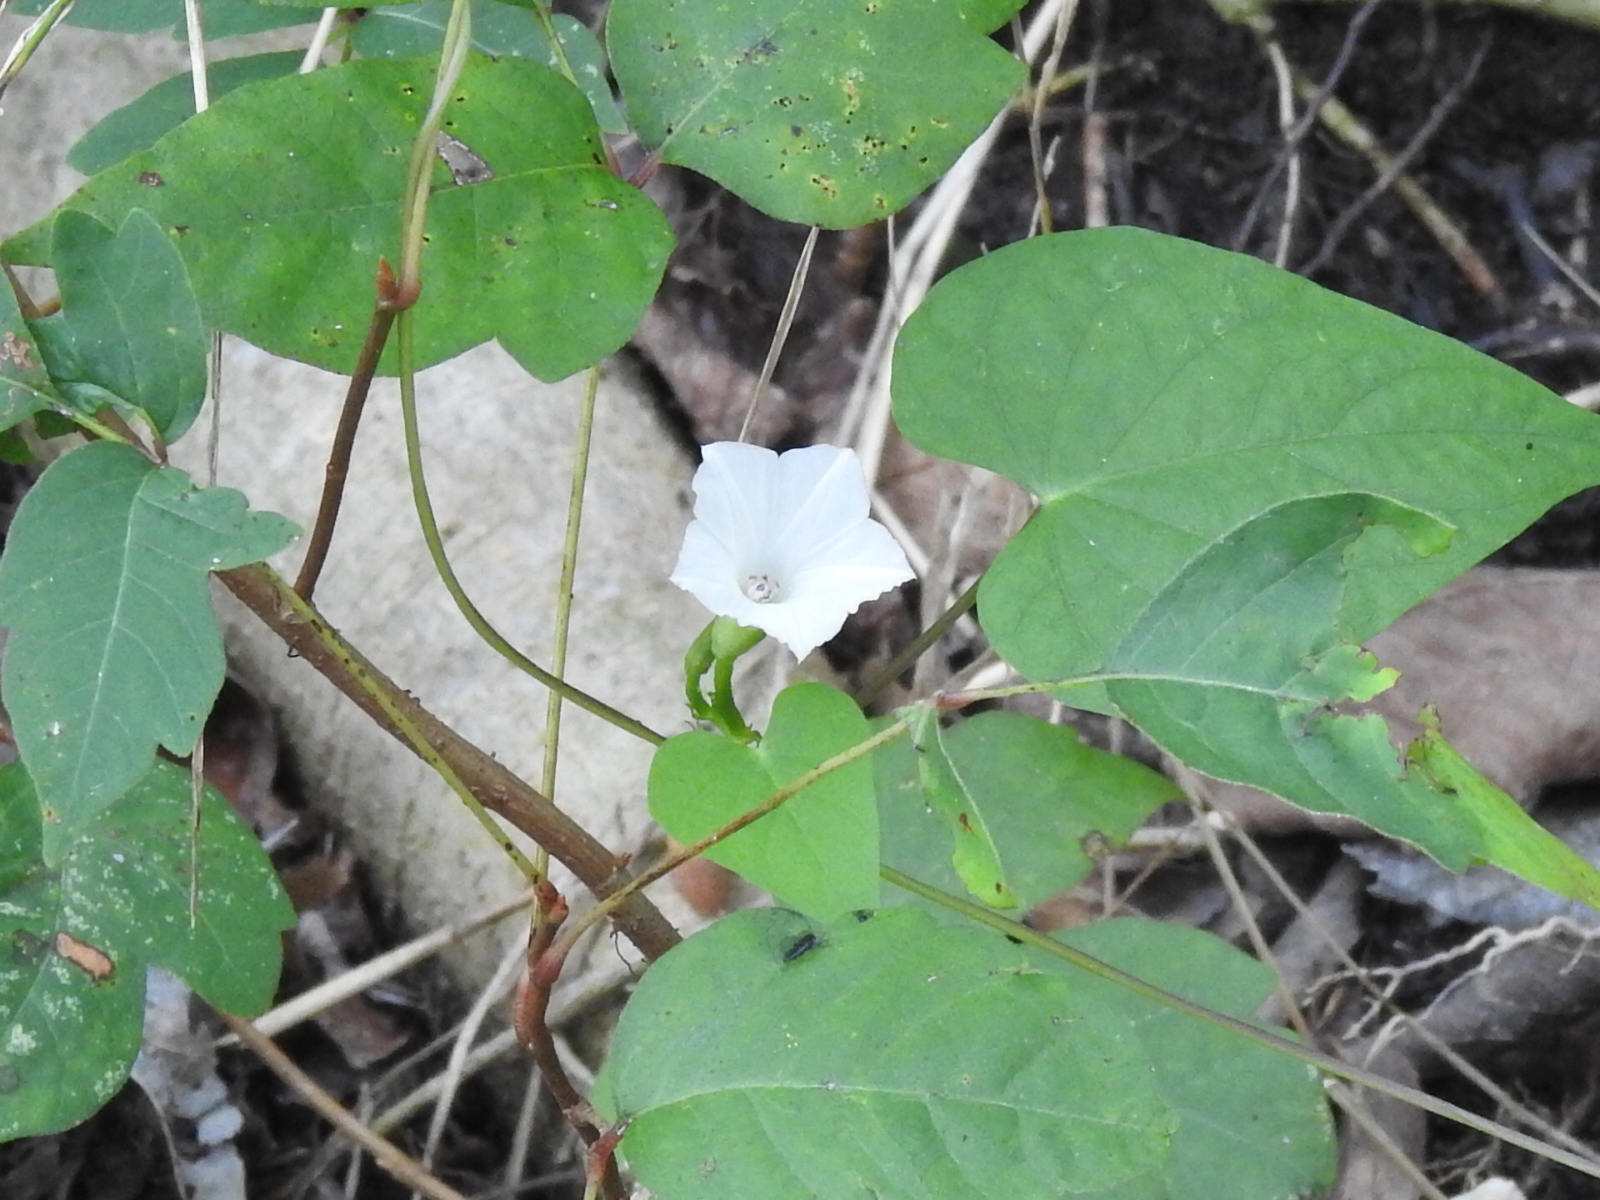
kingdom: Plantae
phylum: Tracheophyta
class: Magnoliopsida
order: Solanales
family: Convolvulaceae
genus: Ipomoea
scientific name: Ipomoea lacunosa
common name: White morning-glory
